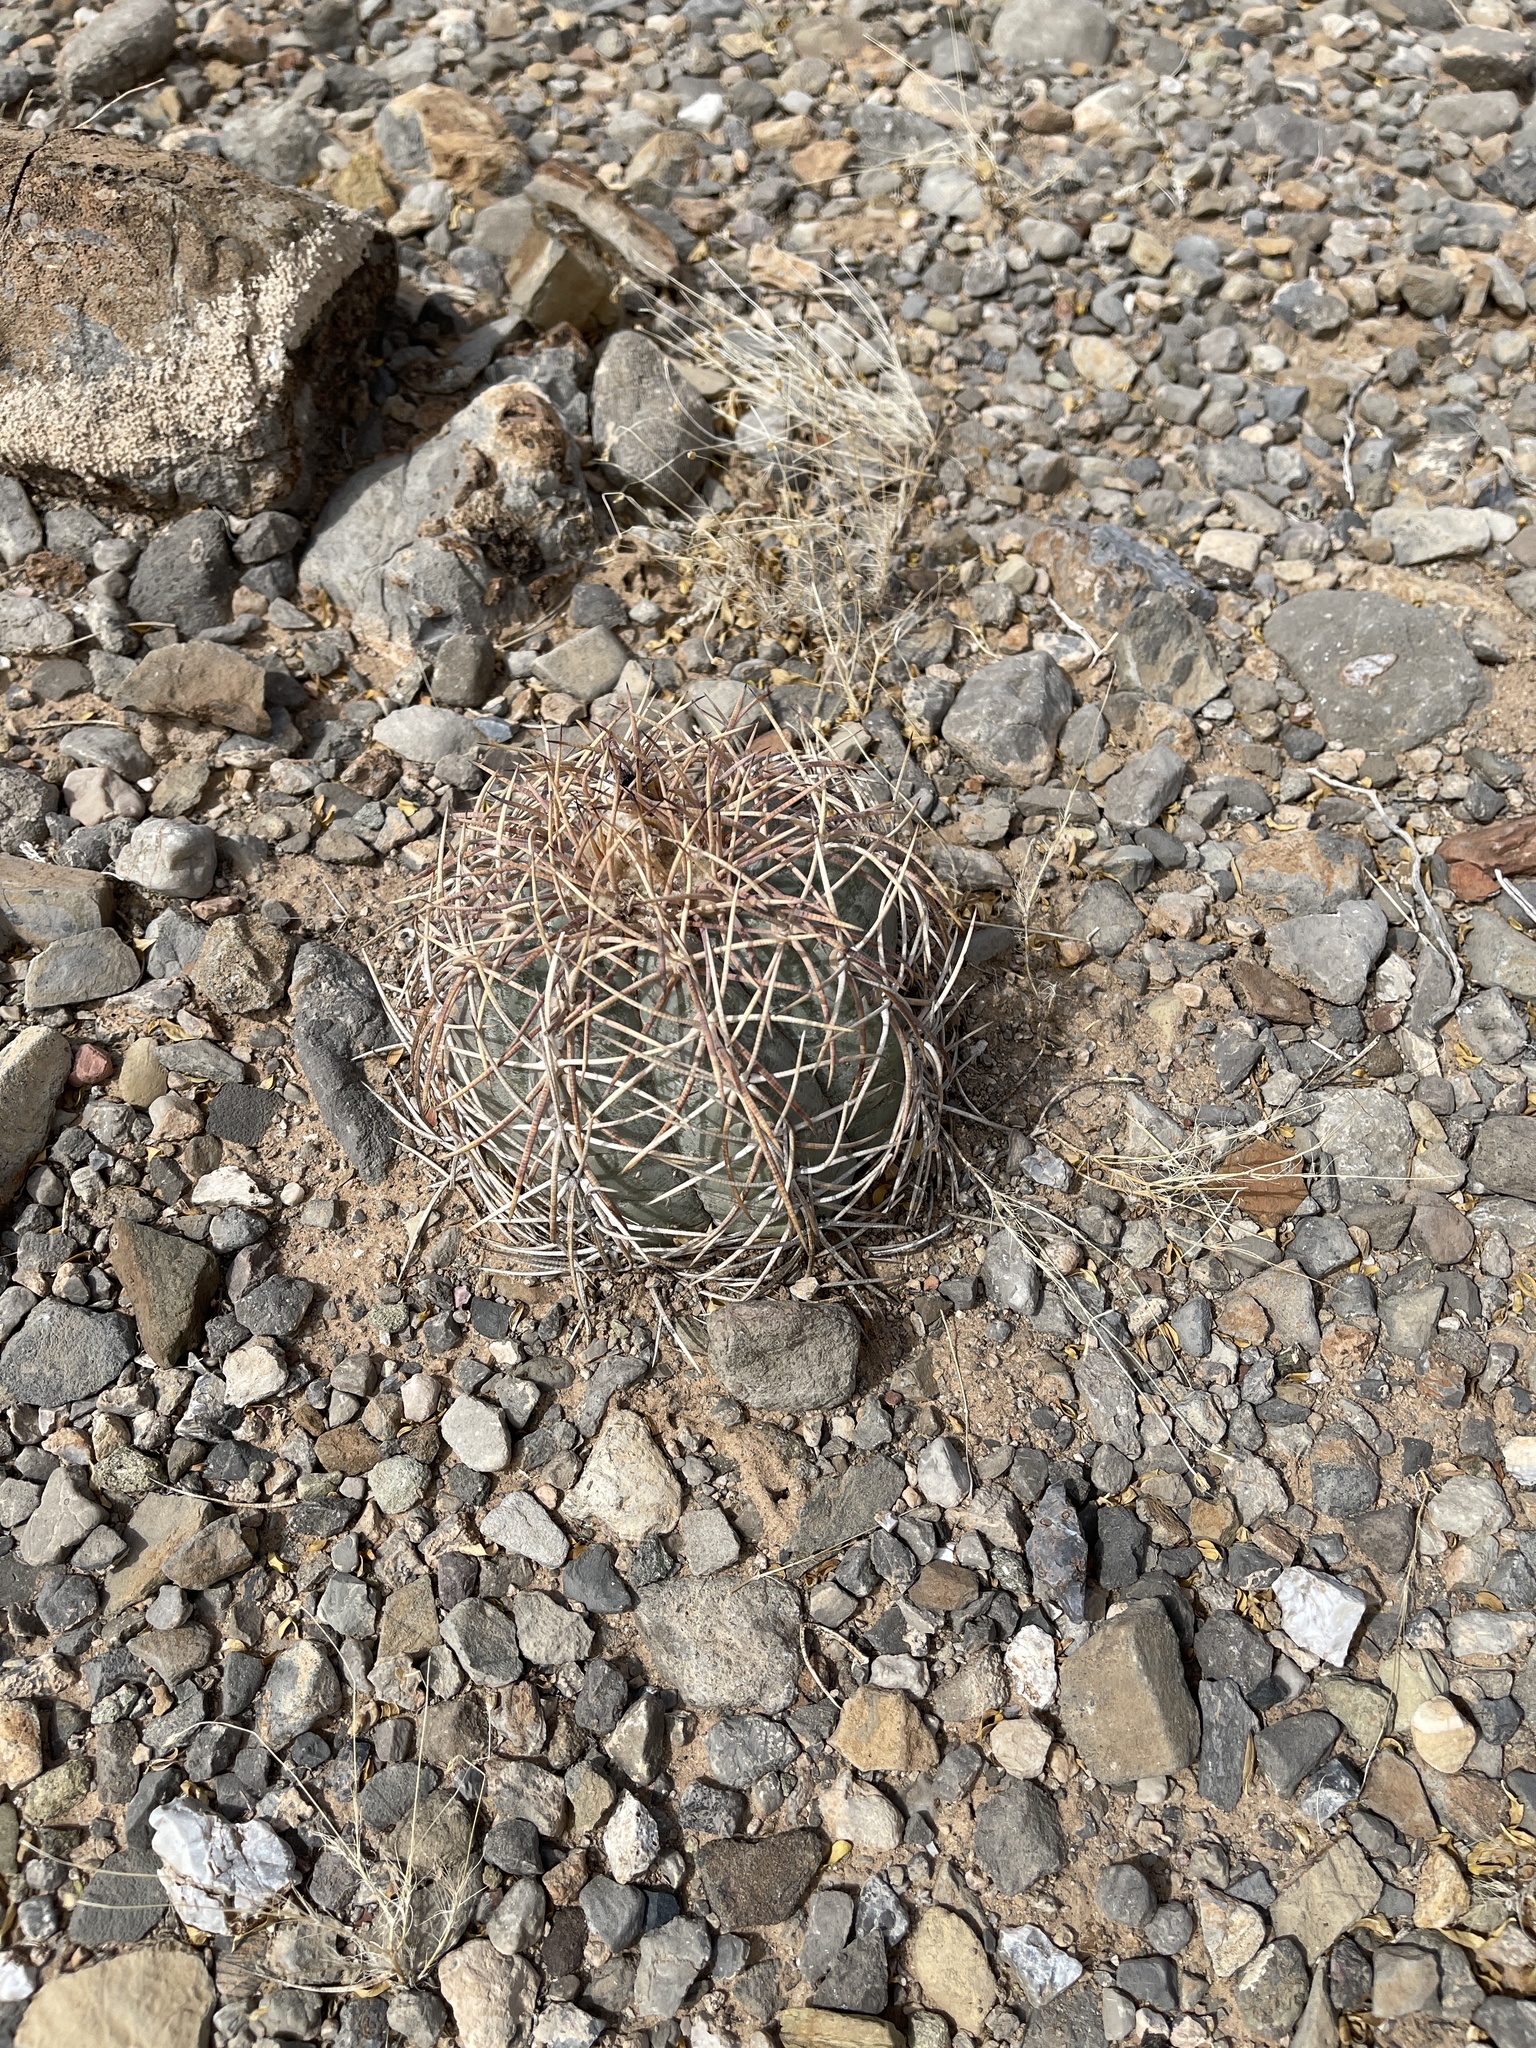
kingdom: Plantae
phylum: Tracheophyta
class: Magnoliopsida
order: Caryophyllales
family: Cactaceae
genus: Echinocactus
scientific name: Echinocactus horizonthalonius
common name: Devilshead
